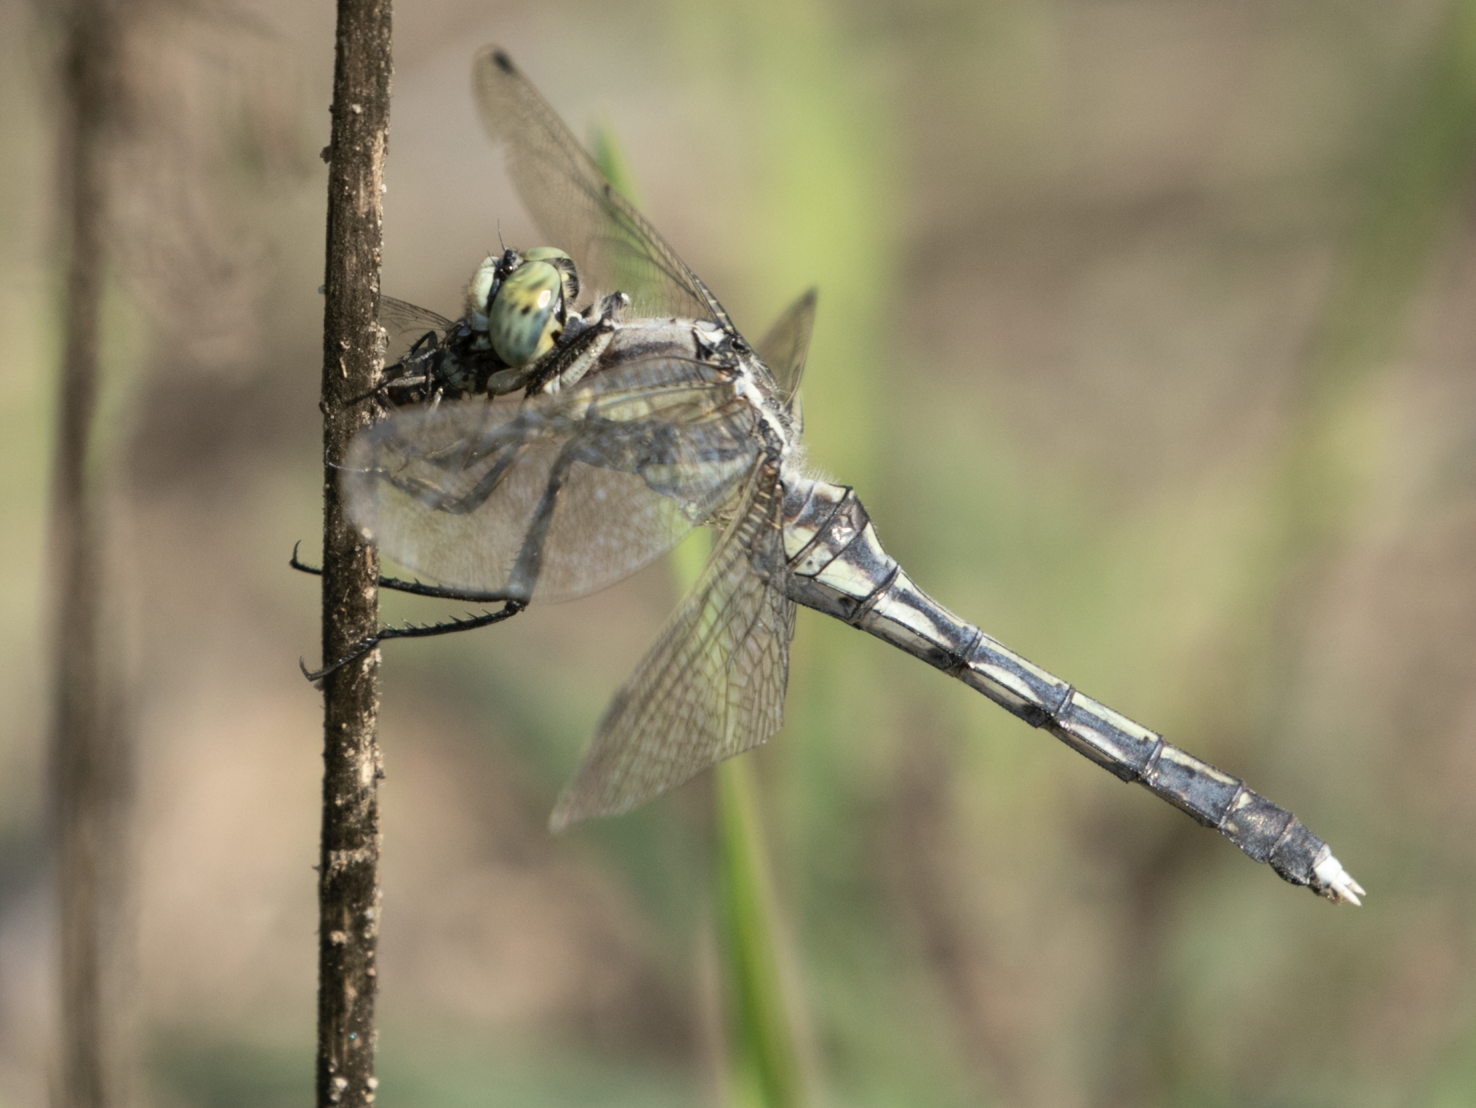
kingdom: Animalia
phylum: Arthropoda
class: Insecta
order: Odonata
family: Libellulidae
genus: Orthetrum
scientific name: Orthetrum albistylum
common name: White-tailed skimmer
